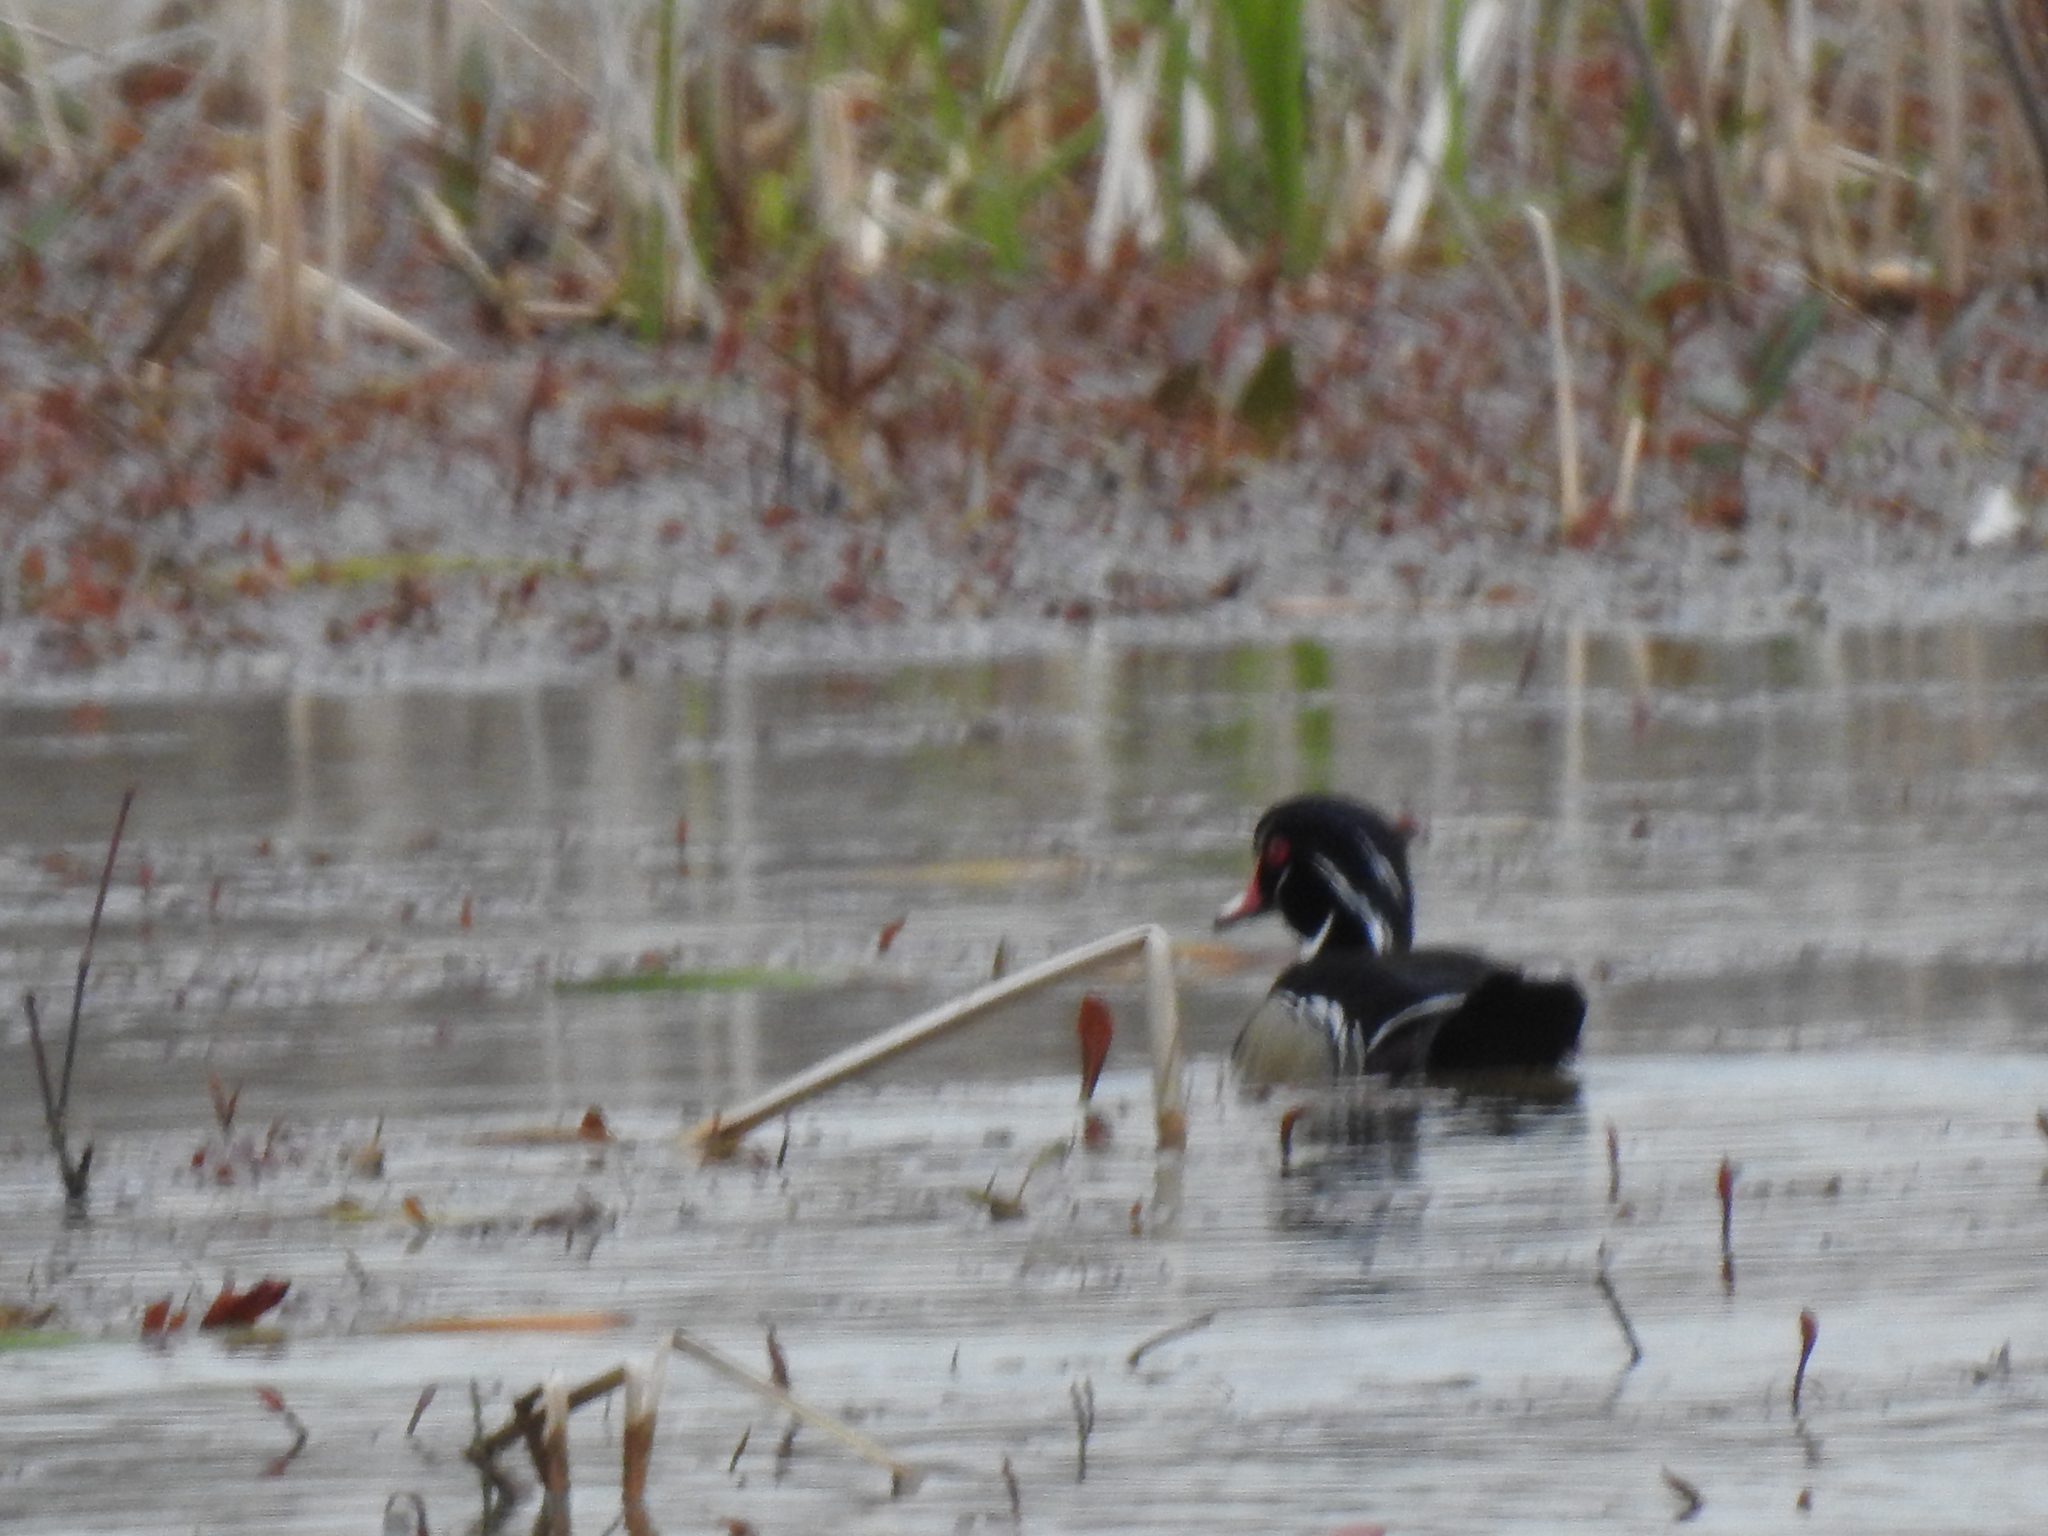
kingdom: Animalia
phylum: Chordata
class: Aves
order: Anseriformes
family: Anatidae
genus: Aix
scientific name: Aix sponsa
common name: Wood duck
